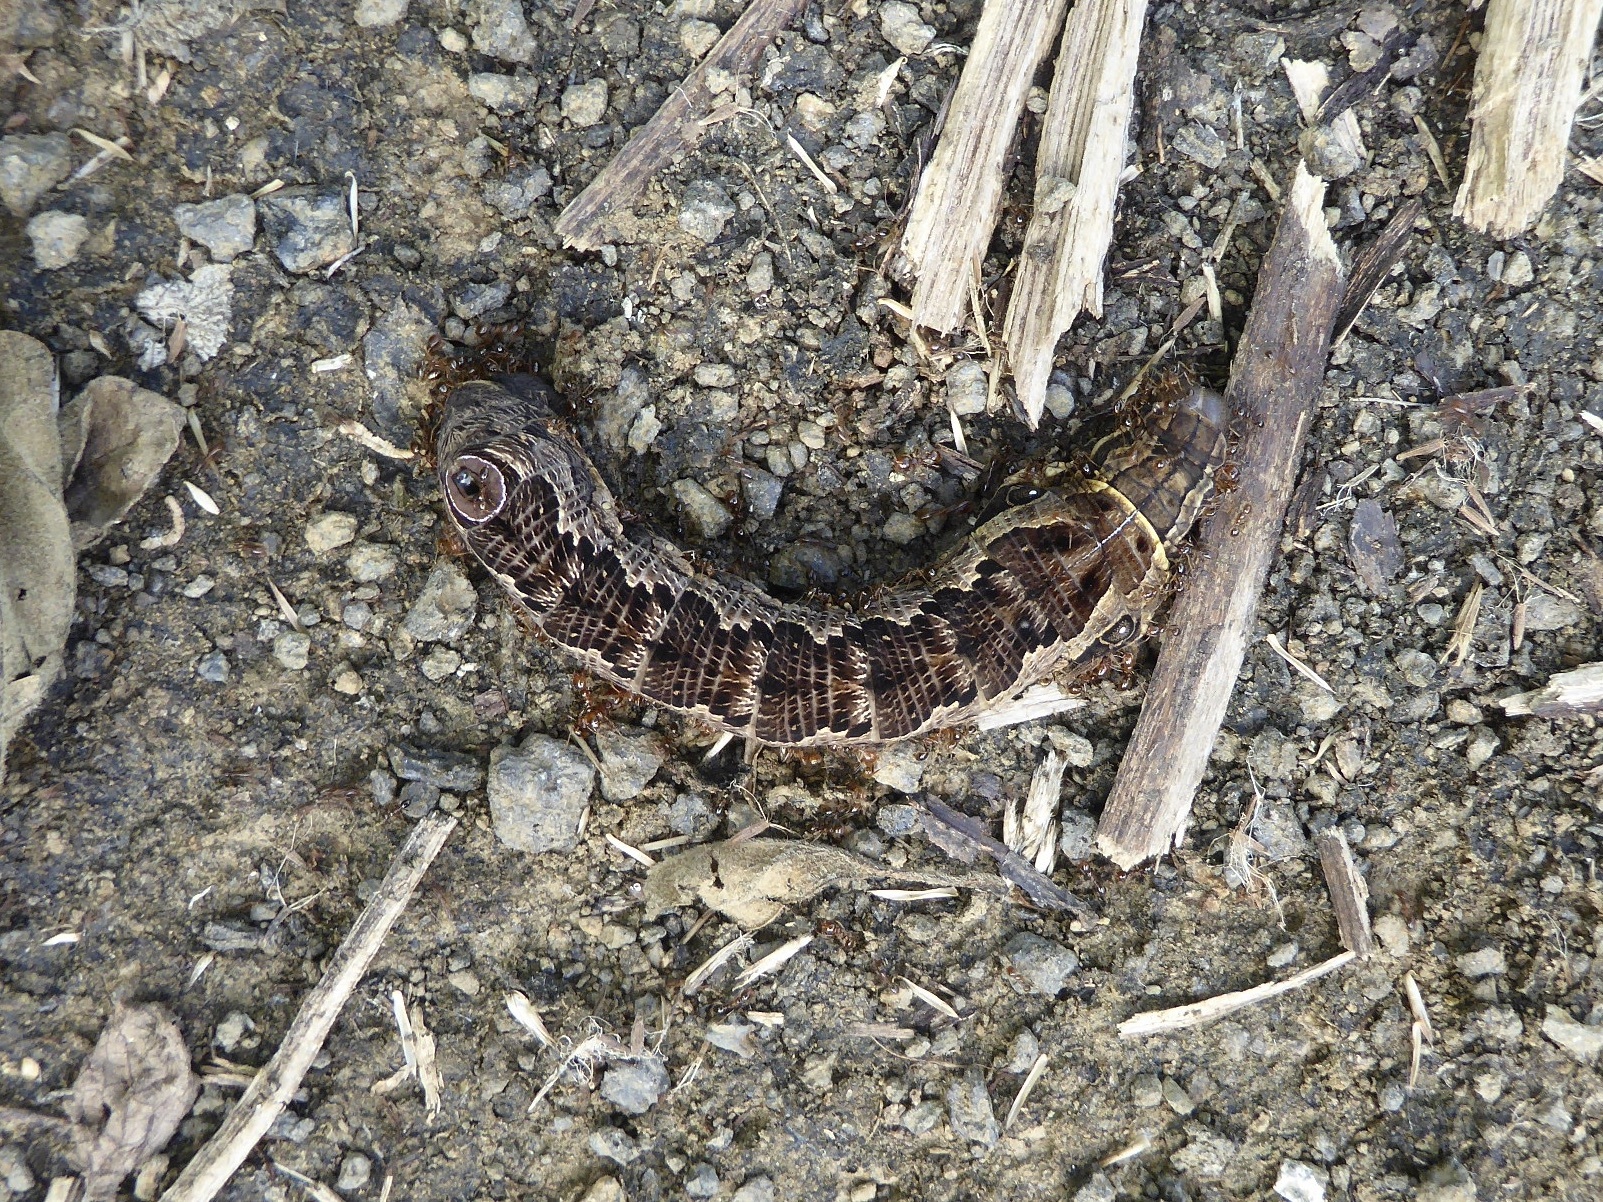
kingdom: Animalia
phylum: Arthropoda
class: Insecta
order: Lepidoptera
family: Sphingidae
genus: Eumorpha
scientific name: Eumorpha labruscae
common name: Gaudy sphinx
